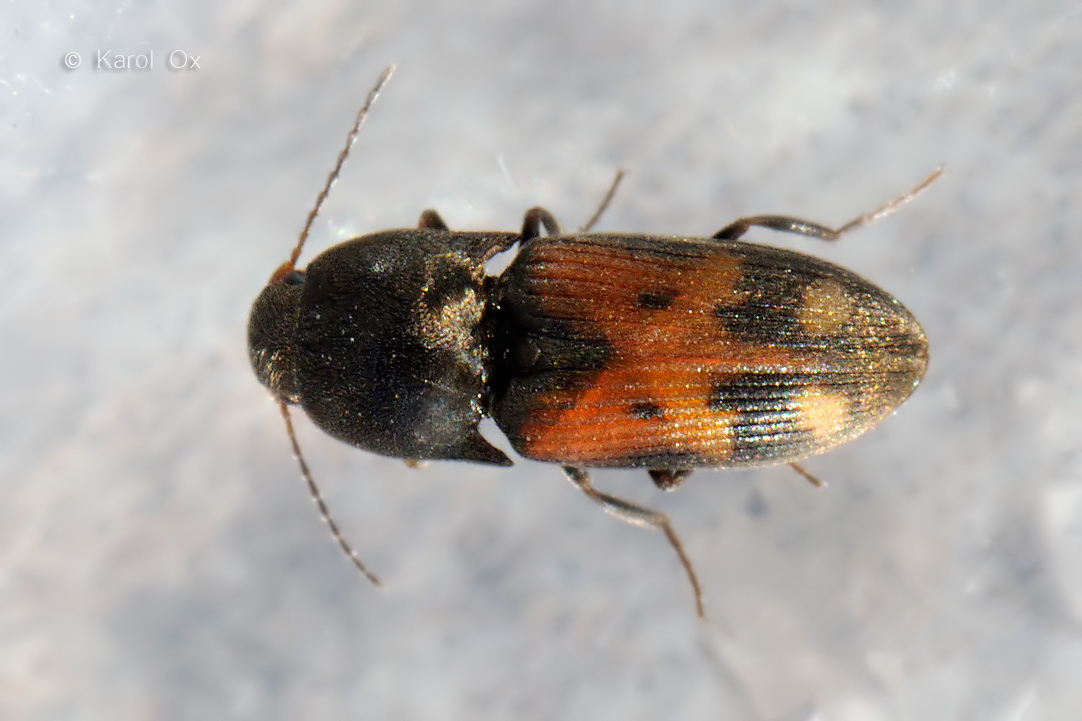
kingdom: Animalia
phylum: Arthropoda
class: Insecta
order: Coleoptera
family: Elateridae
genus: Drasterius
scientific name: Drasterius bimaculatus
